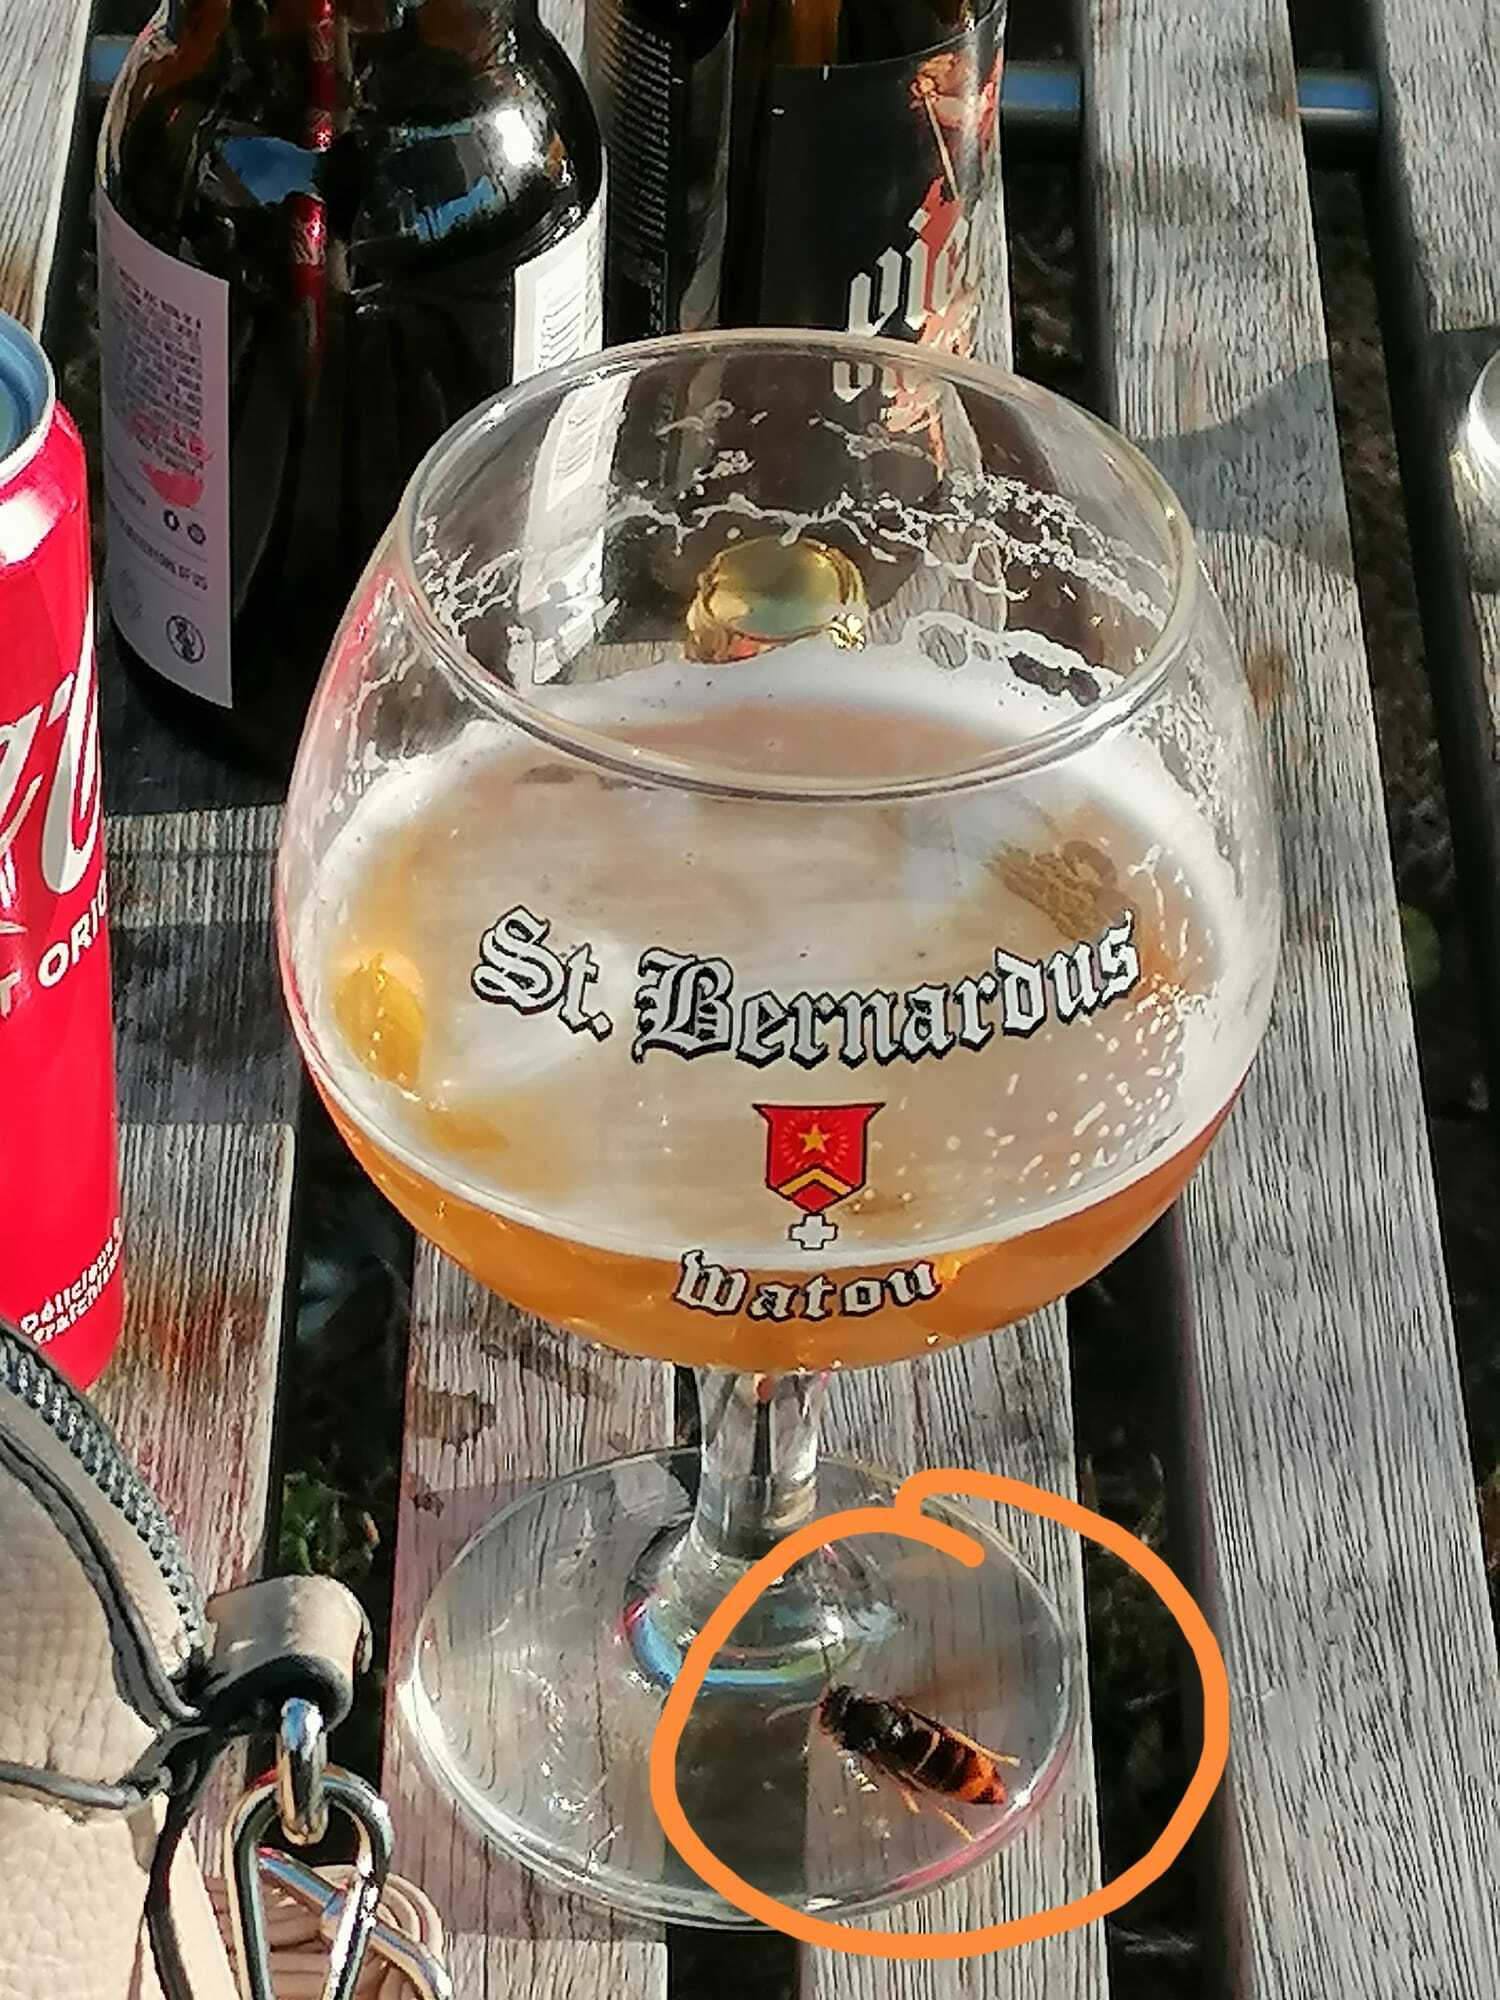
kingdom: Animalia
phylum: Arthropoda
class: Insecta
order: Hymenoptera
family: Vespidae
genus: Vespa
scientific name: Vespa velutina
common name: Asian hornet
